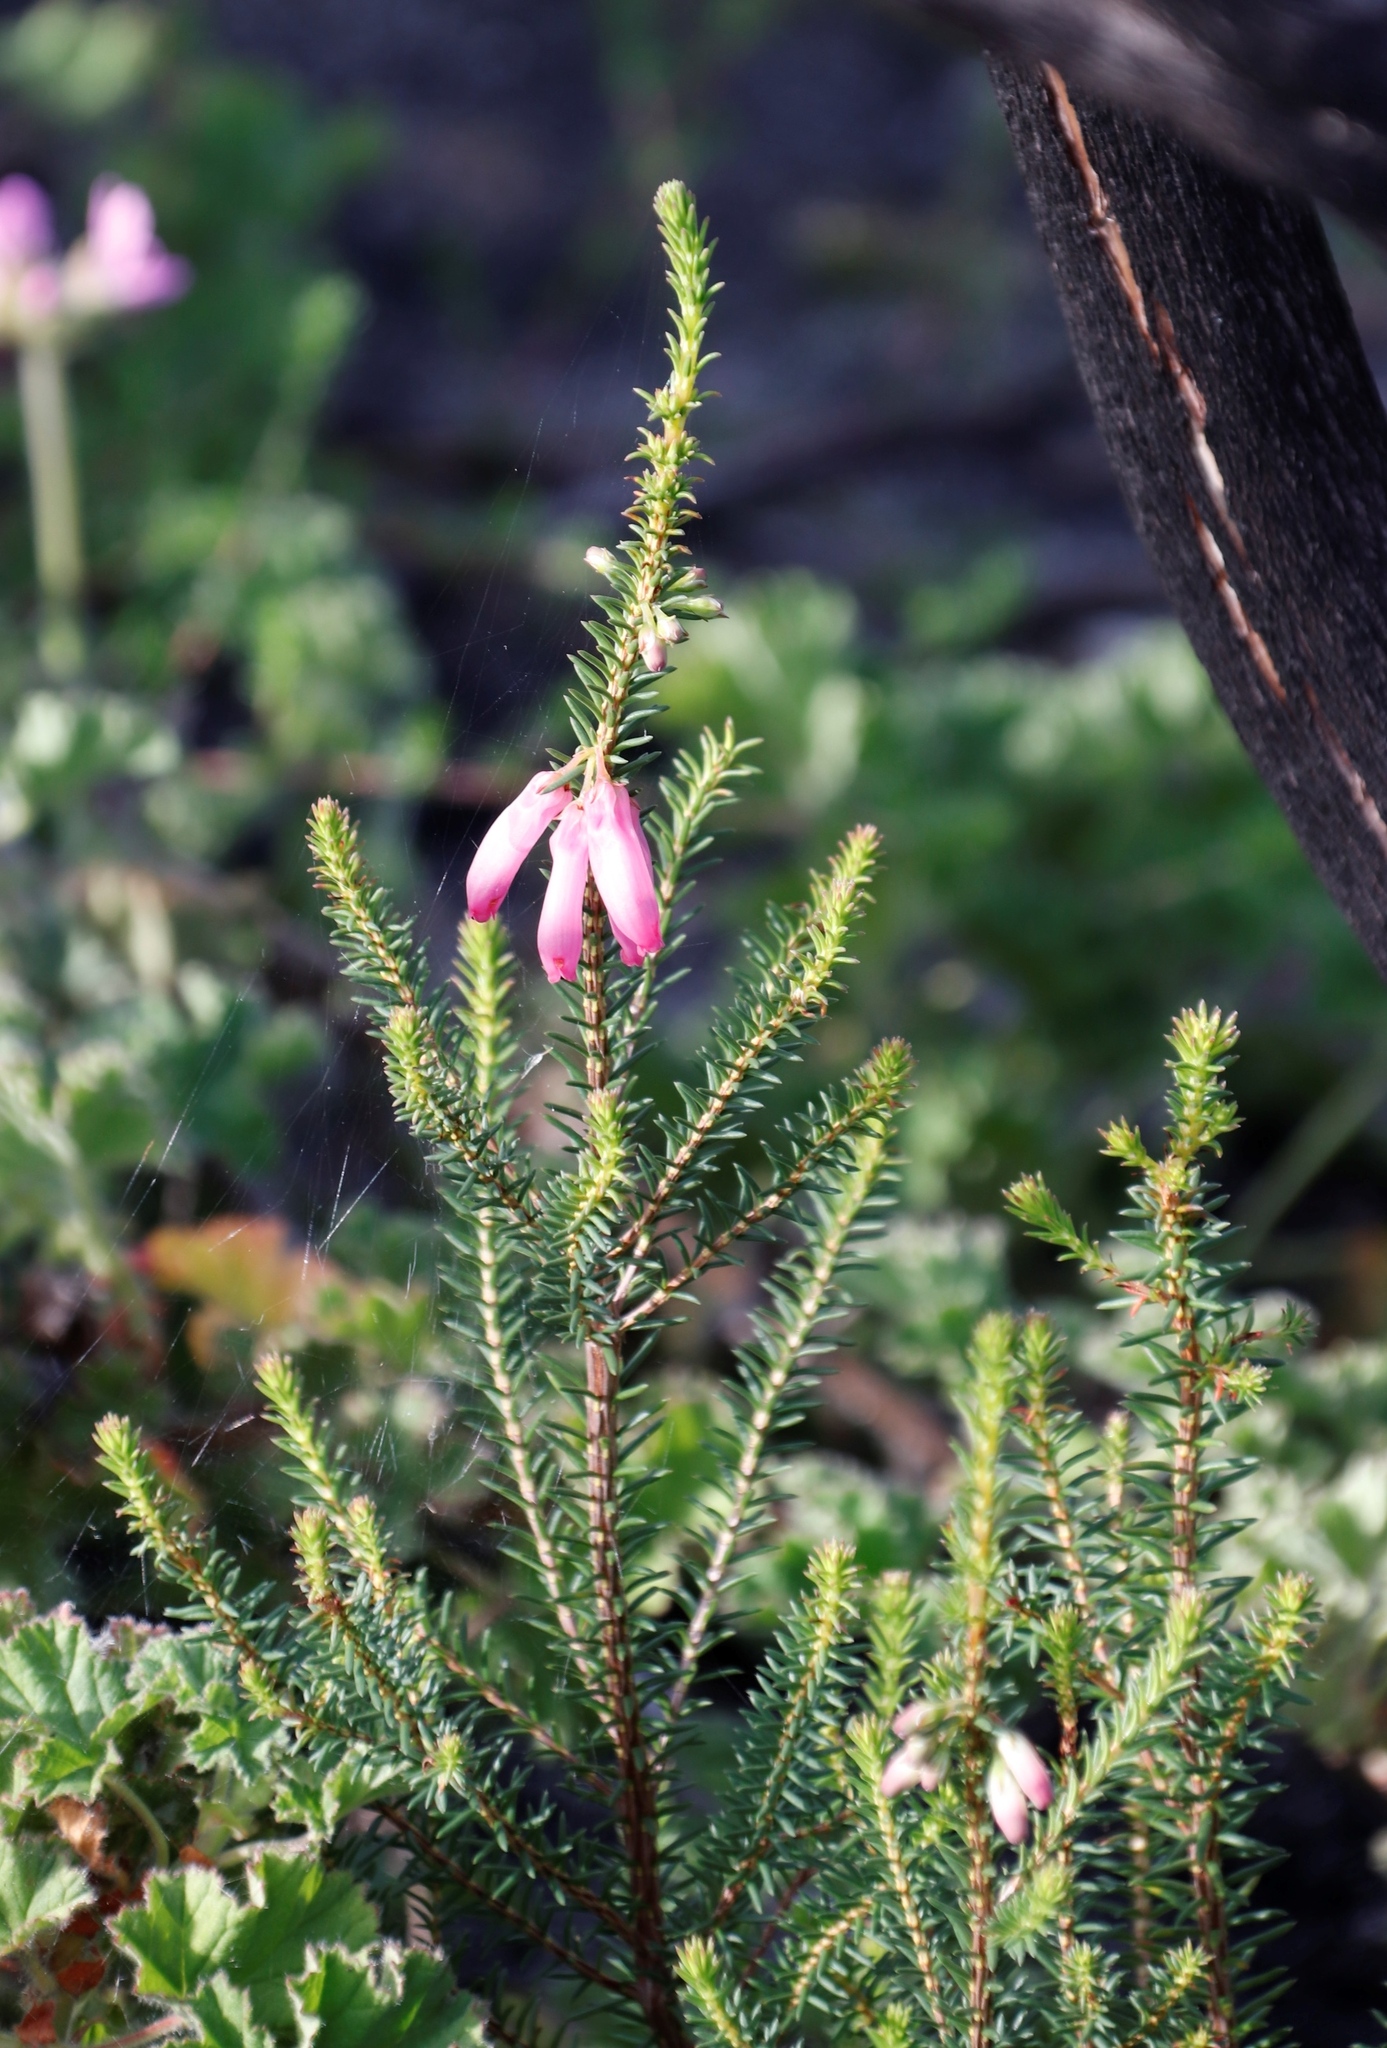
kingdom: Plantae
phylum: Tracheophyta
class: Magnoliopsida
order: Ericales
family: Ericaceae
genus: Erica
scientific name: Erica mammosa
